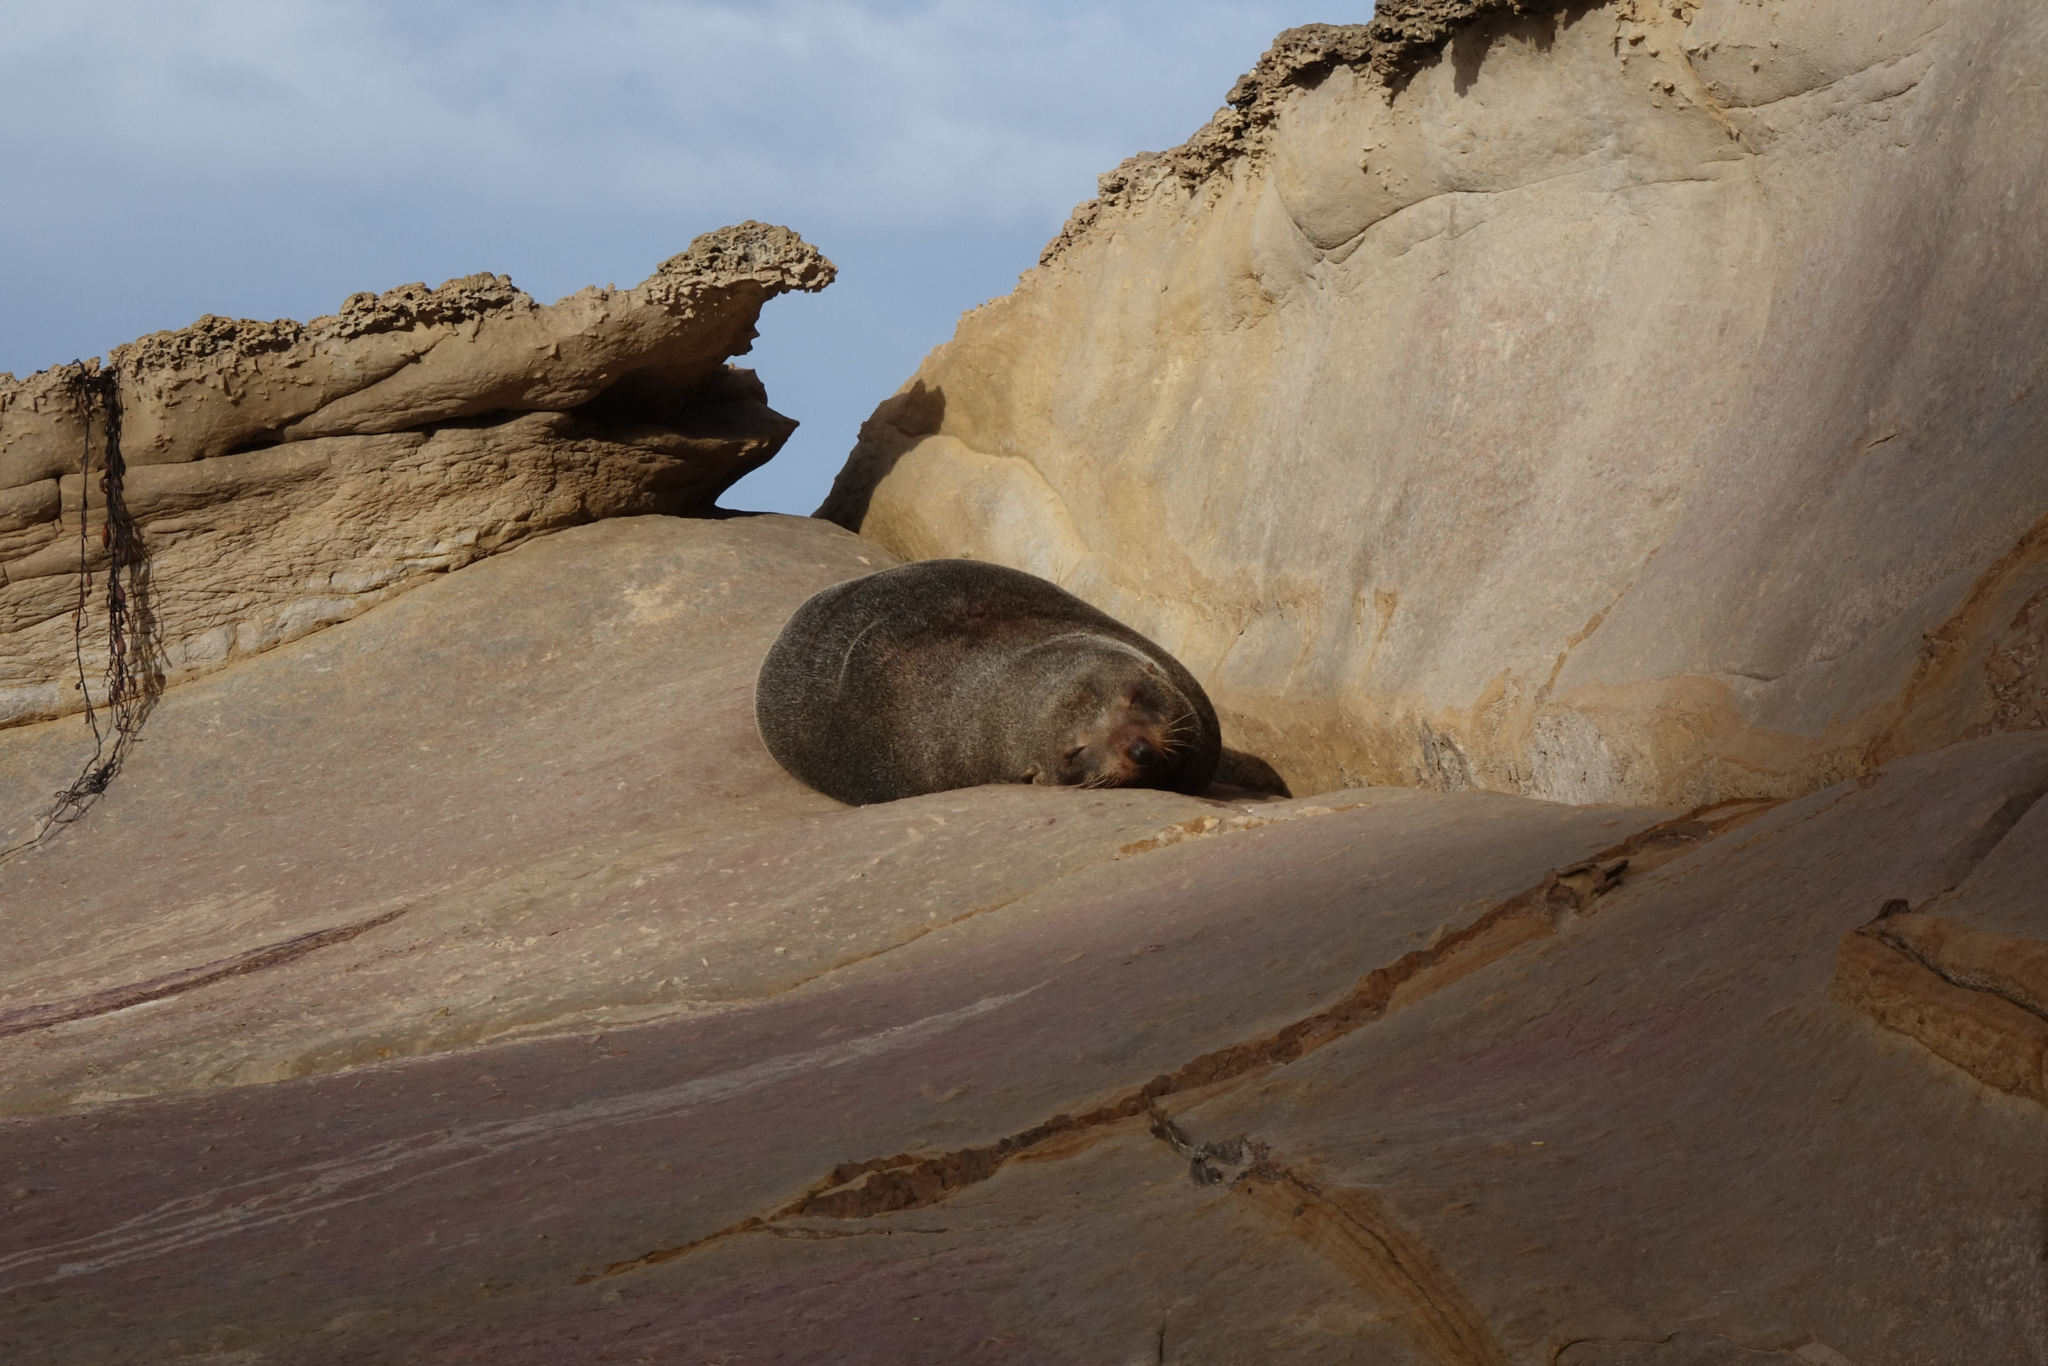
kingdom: Animalia
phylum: Chordata
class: Mammalia
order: Carnivora
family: Otariidae
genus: Arctocephalus
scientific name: Arctocephalus forsteri
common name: New zealand fur seal
